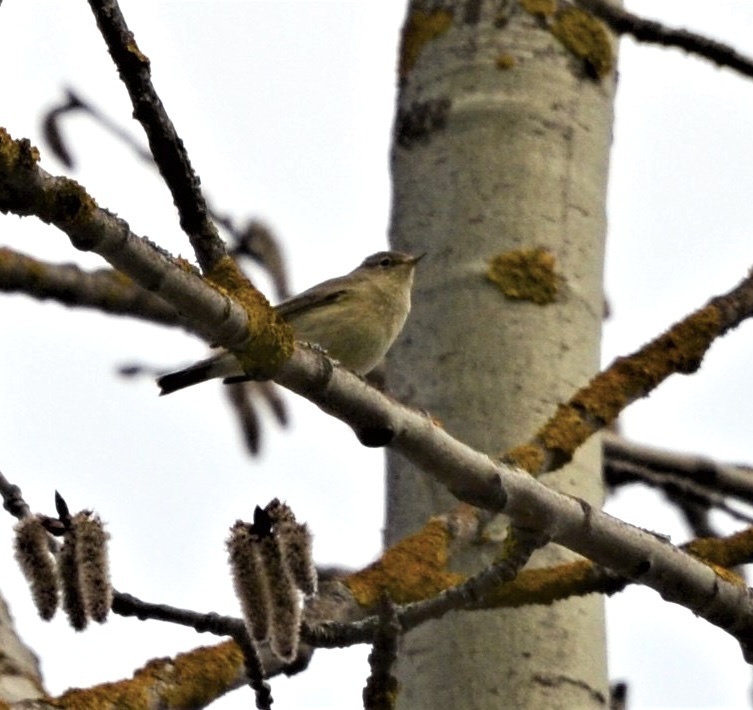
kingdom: Animalia
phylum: Chordata
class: Aves
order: Passeriformes
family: Phylloscopidae
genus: Phylloscopus
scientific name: Phylloscopus collybita
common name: Common chiffchaff
